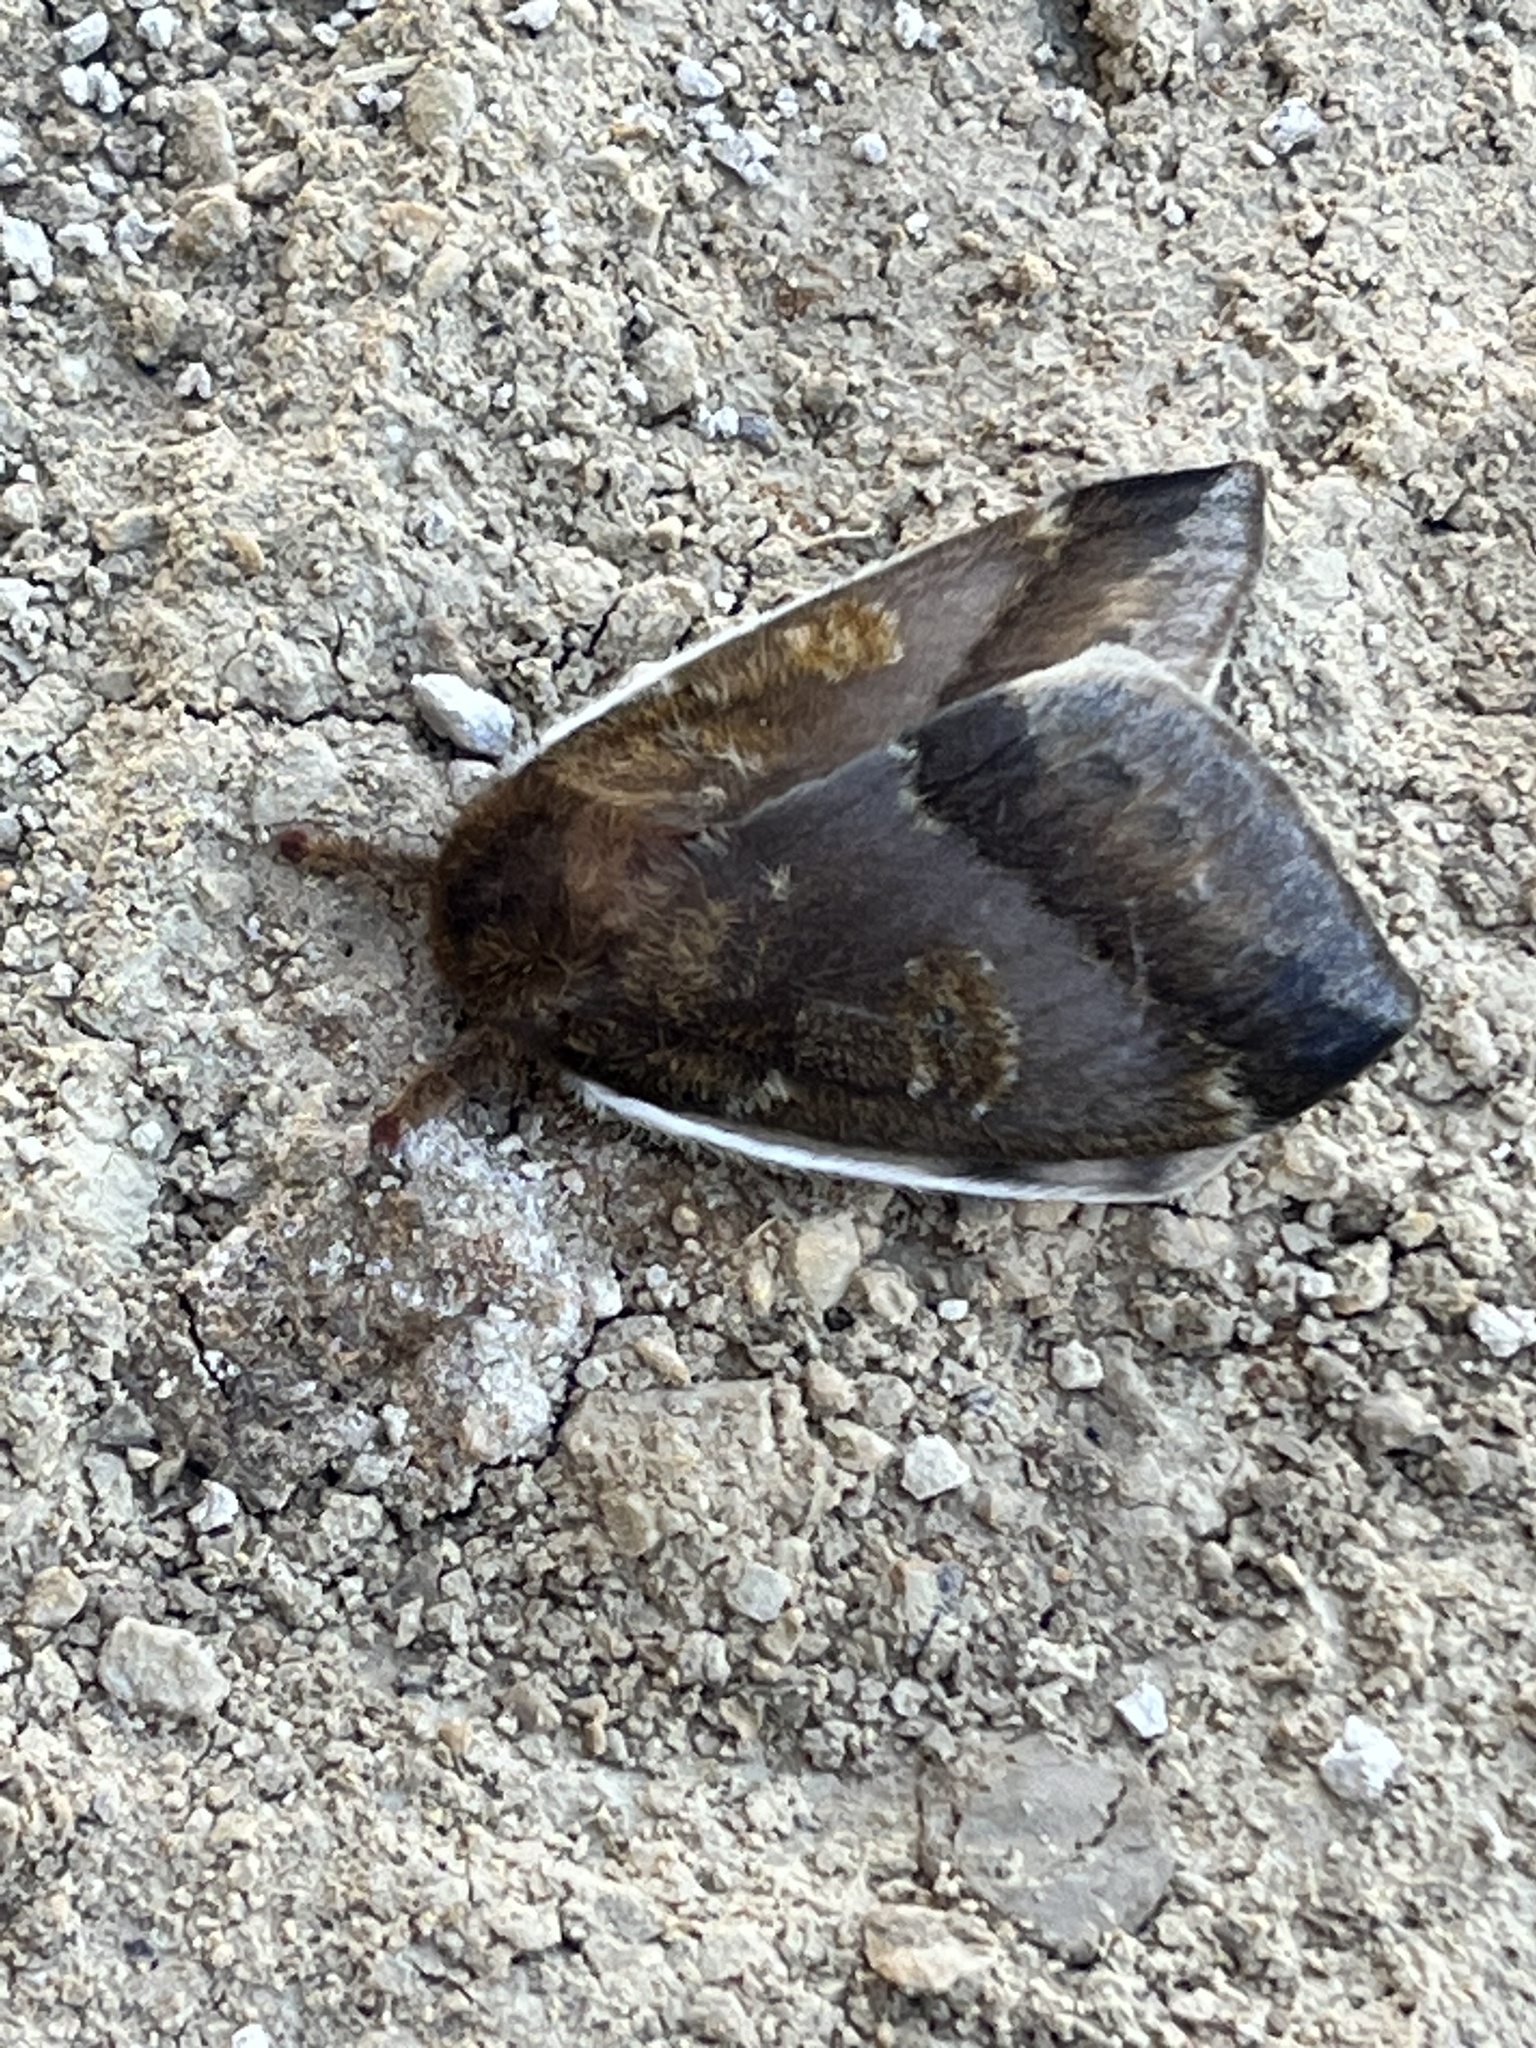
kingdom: Animalia
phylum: Arthropoda
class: Insecta
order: Lepidoptera
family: Saturniidae
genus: Automeris
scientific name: Automeris io
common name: Io moth
